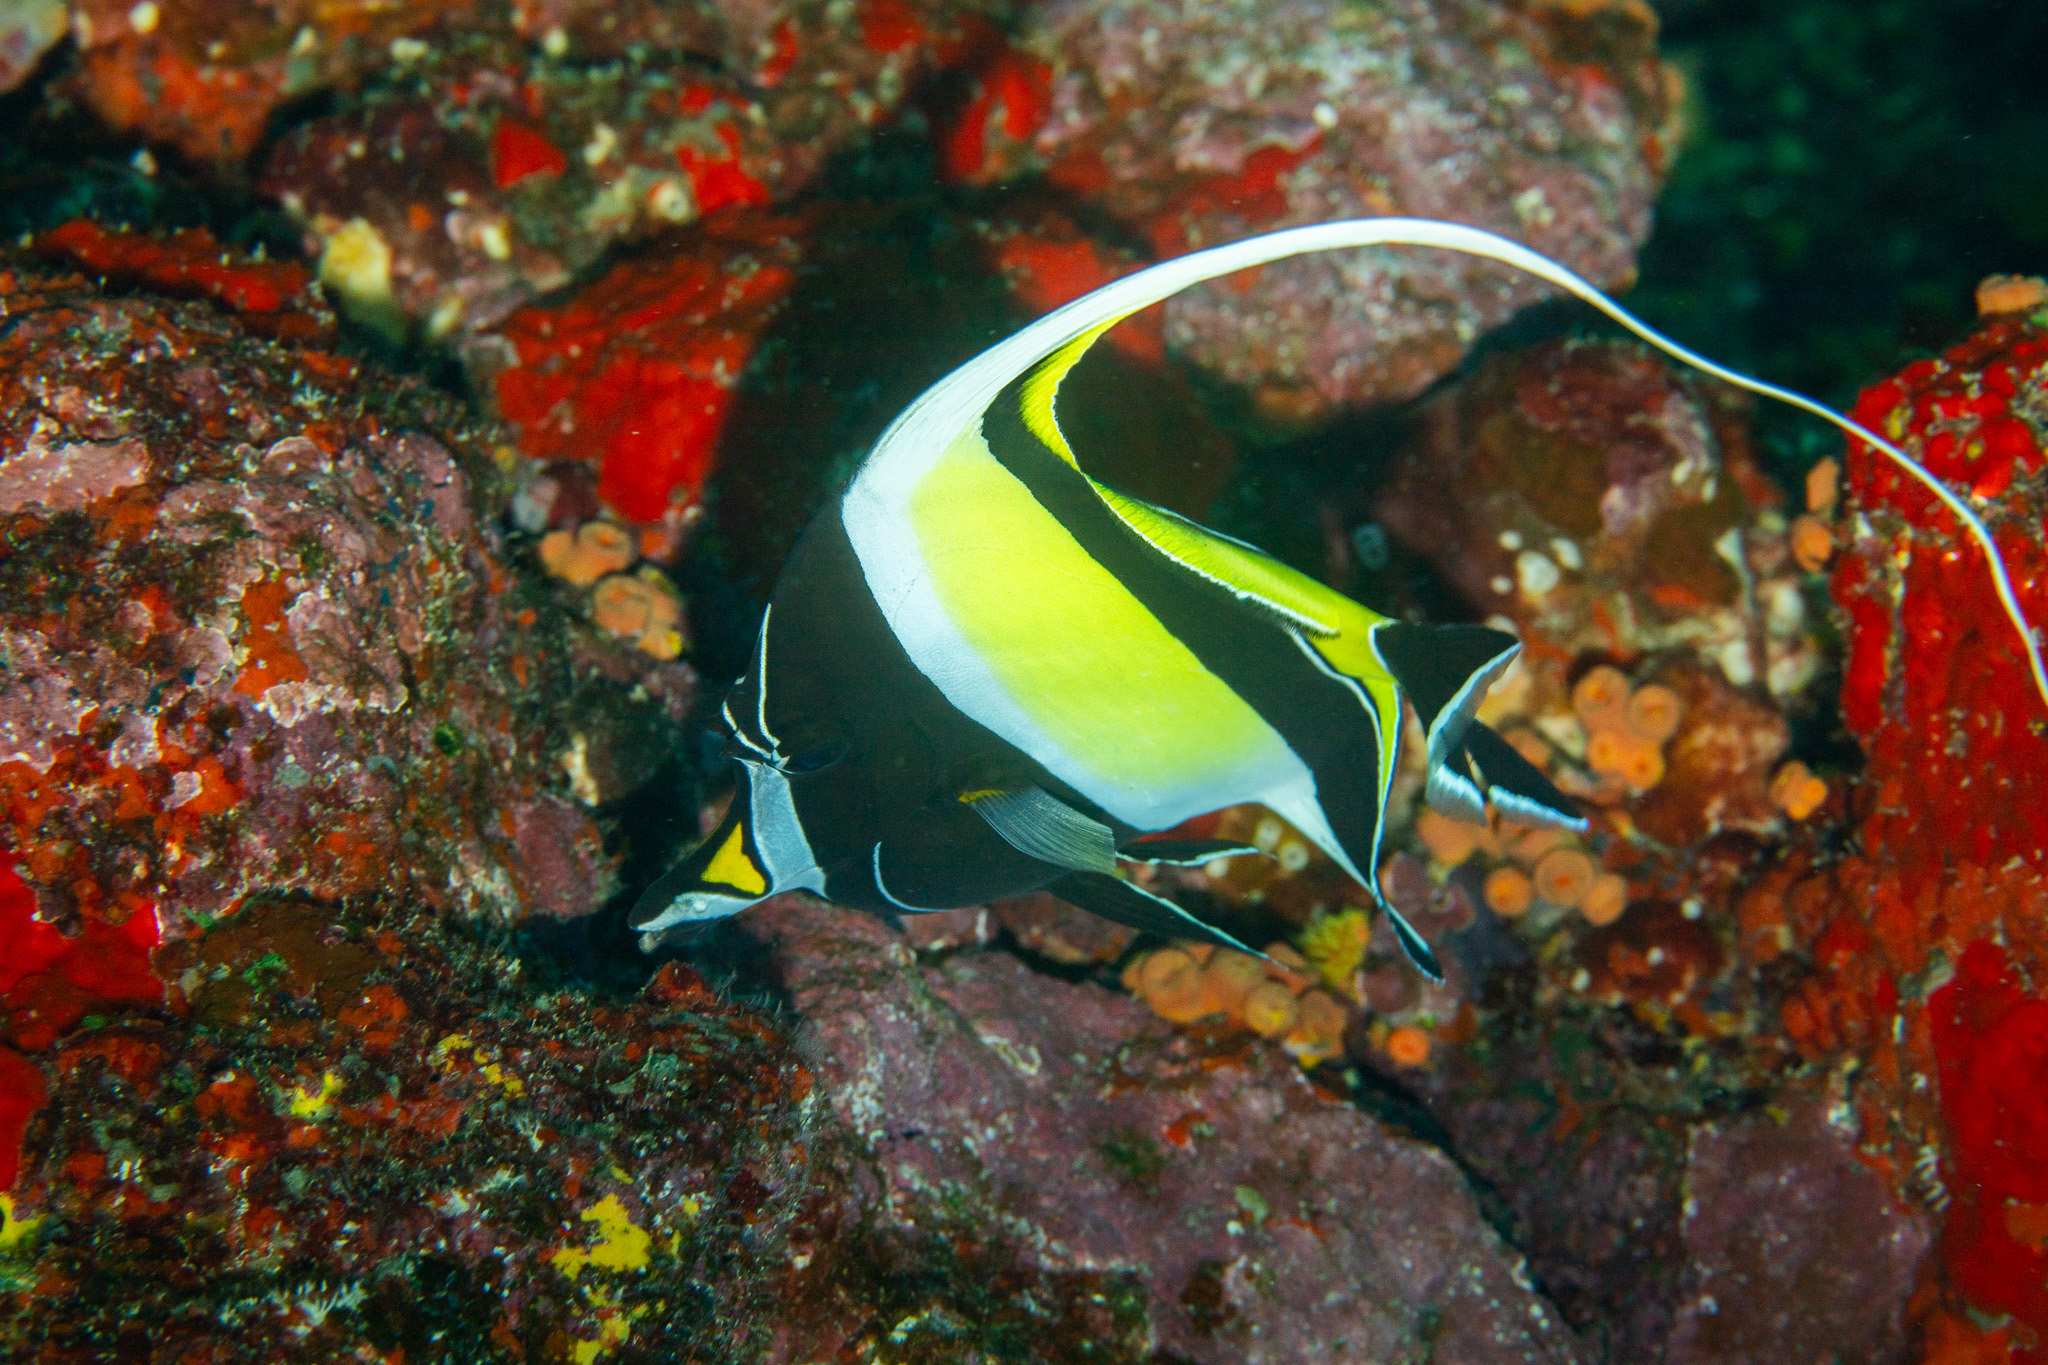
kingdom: Animalia
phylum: Chordata
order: Perciformes
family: Zanclidae
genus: Zanclus
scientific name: Zanclus cornutus
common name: Moorish idol
